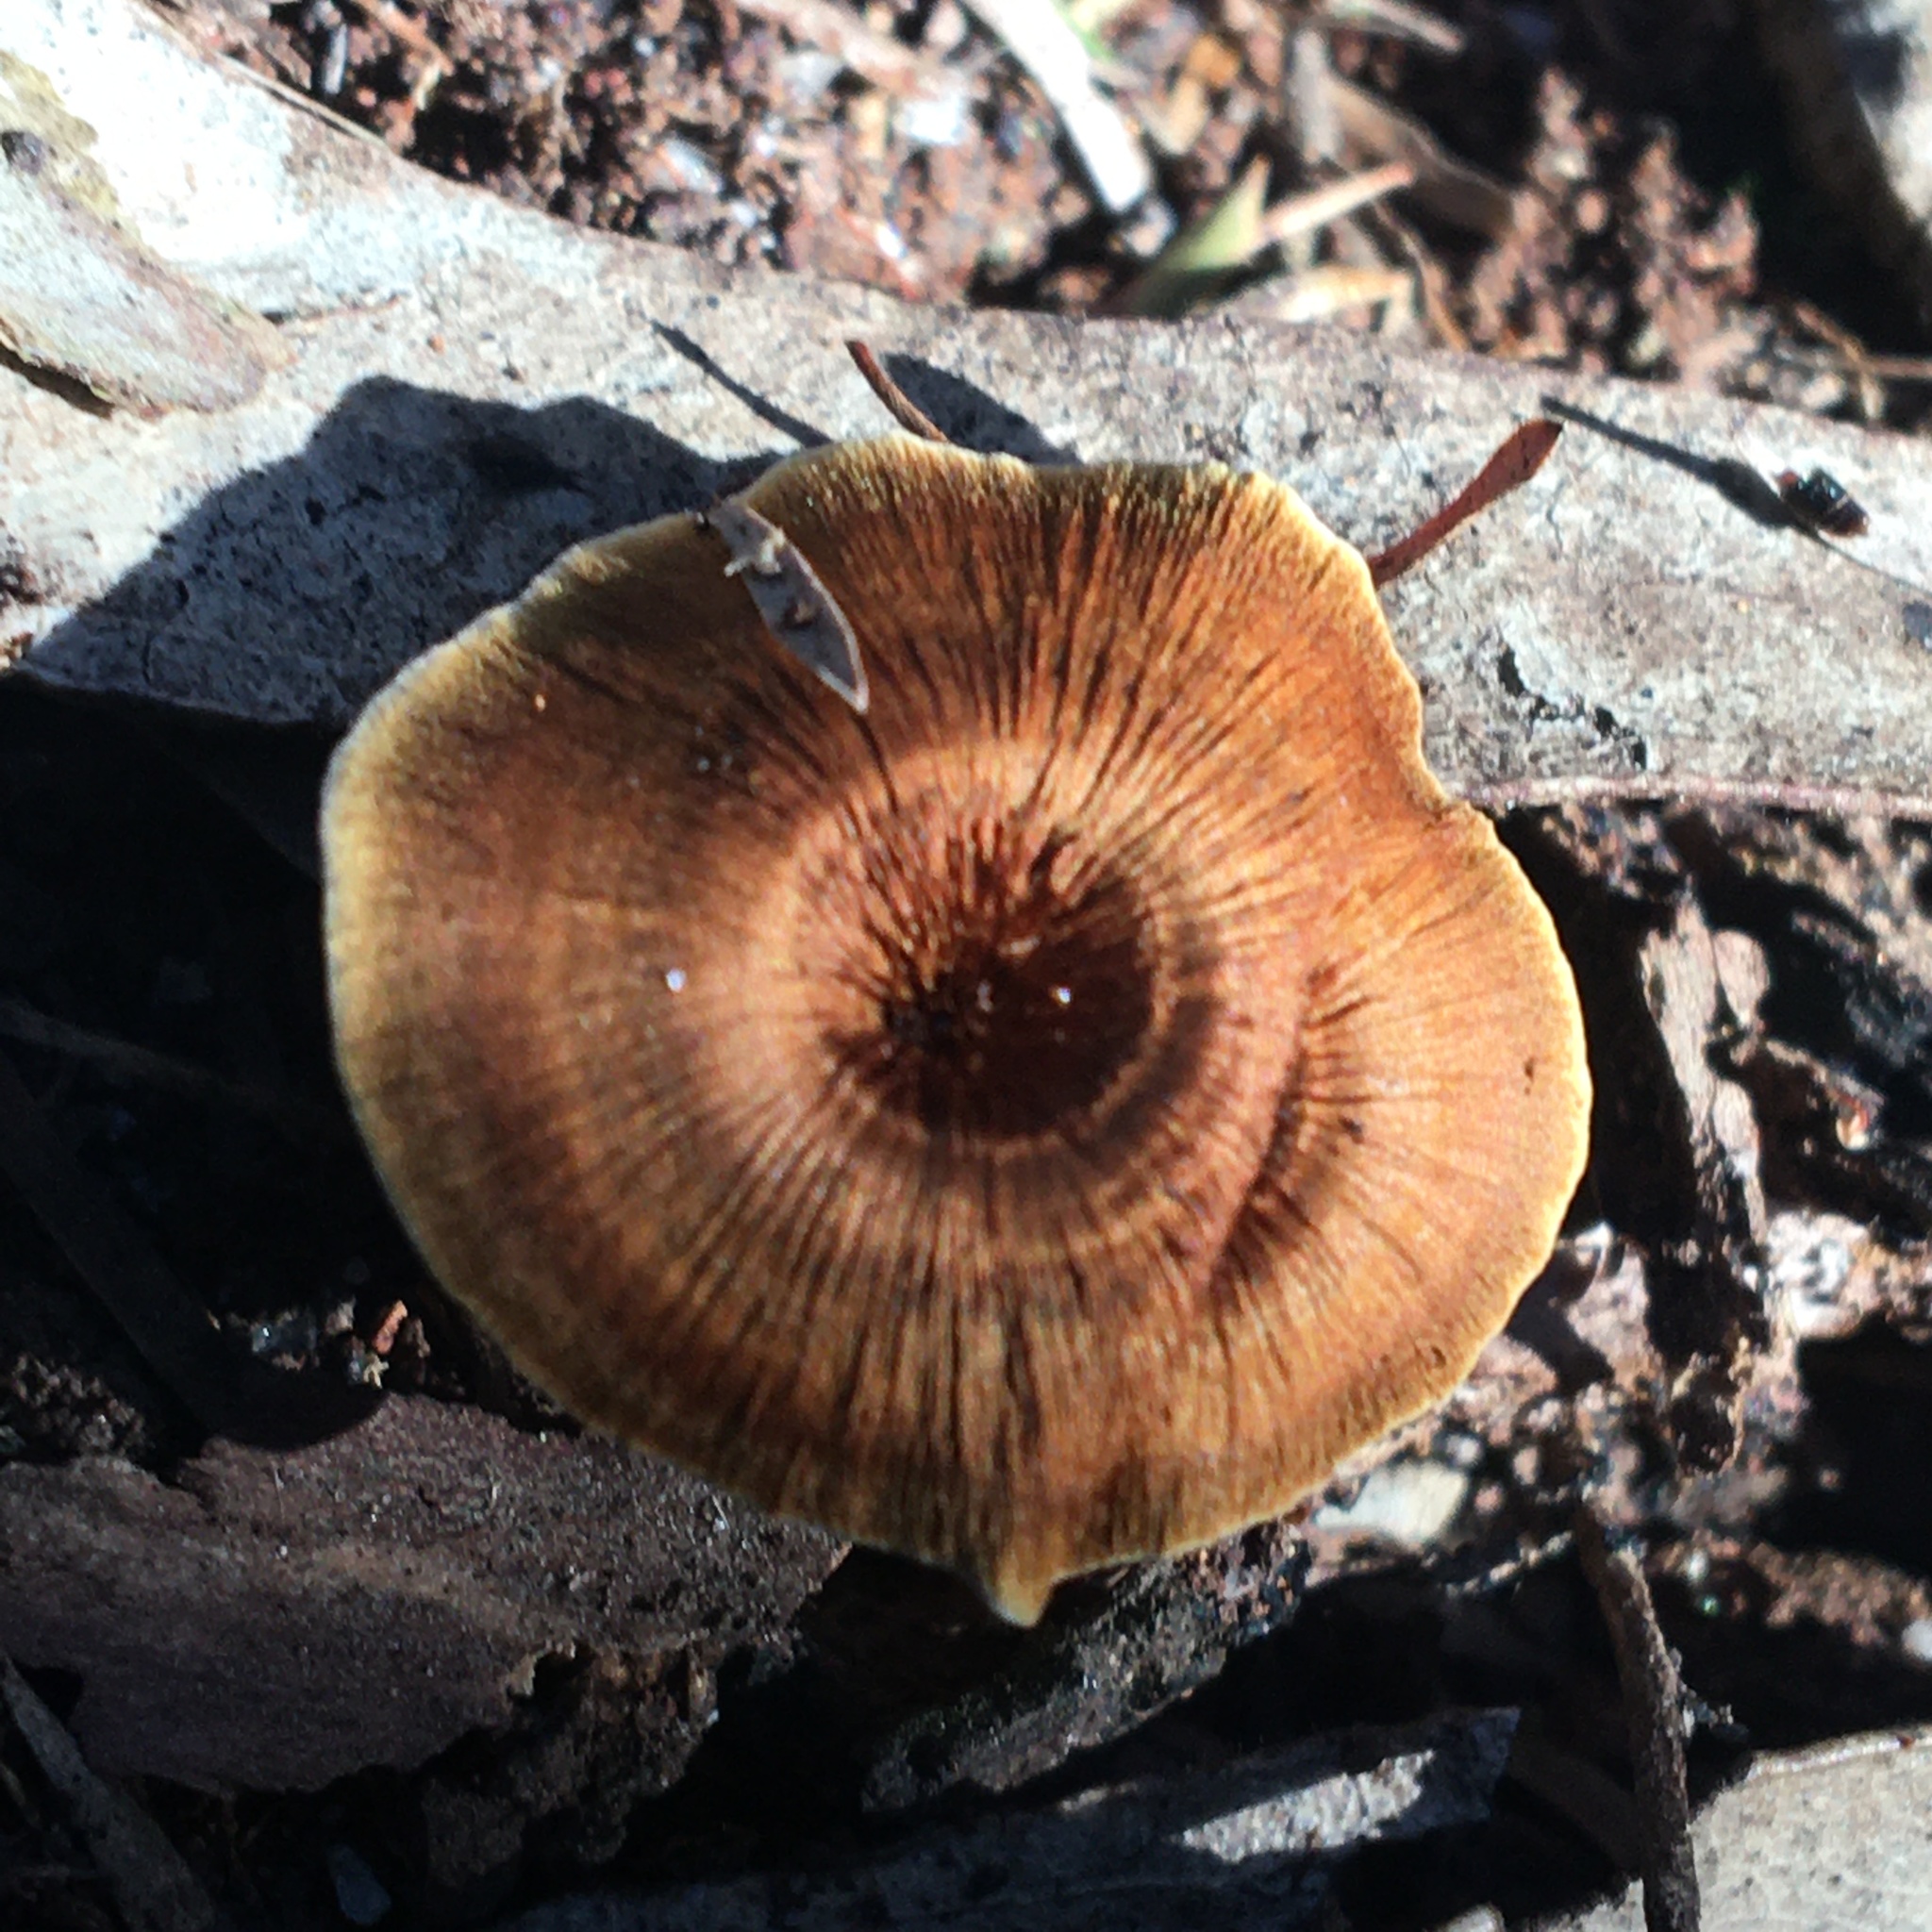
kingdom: Fungi
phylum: Basidiomycota
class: Agaricomycetes
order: Hymenochaetales
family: Hymenochaetaceae
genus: Coltricia
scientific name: Coltricia australica
